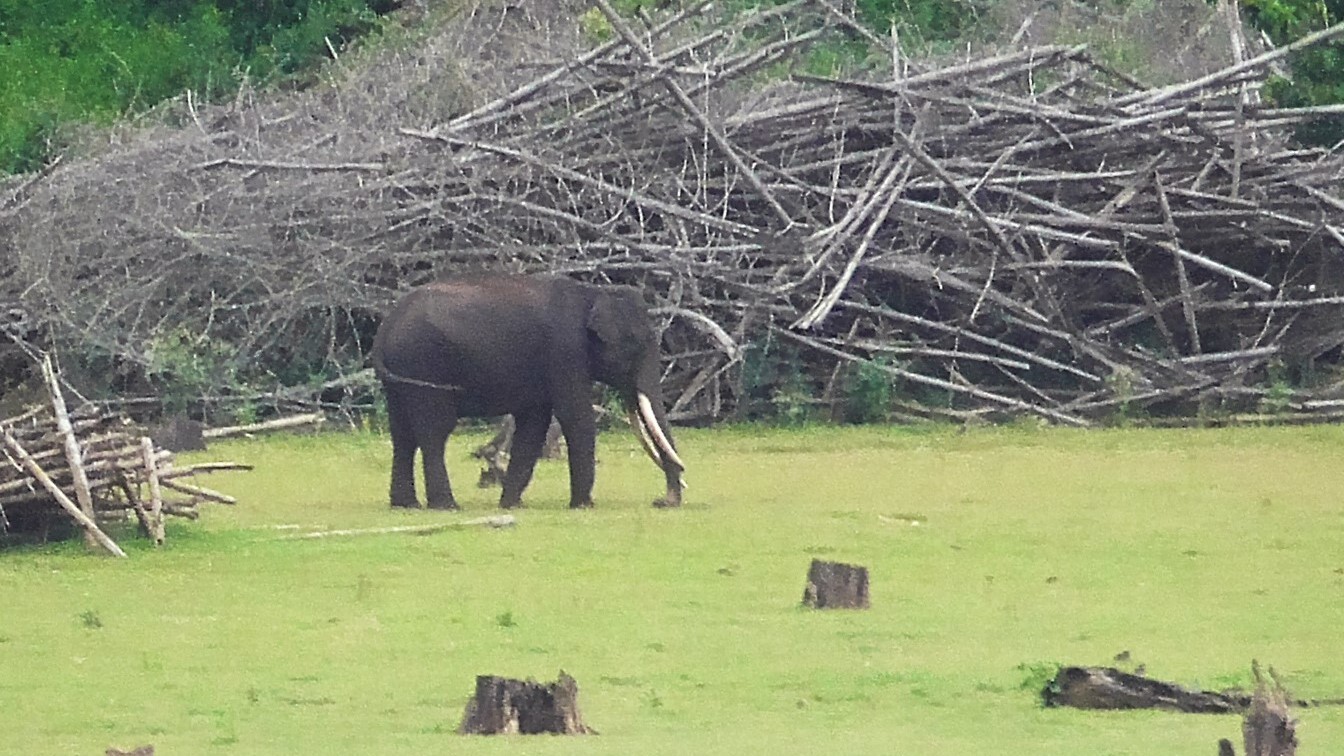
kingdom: Animalia
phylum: Chordata
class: Mammalia
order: Proboscidea
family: Elephantidae
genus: Elephas
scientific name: Elephas maximus
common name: Asian elephant
